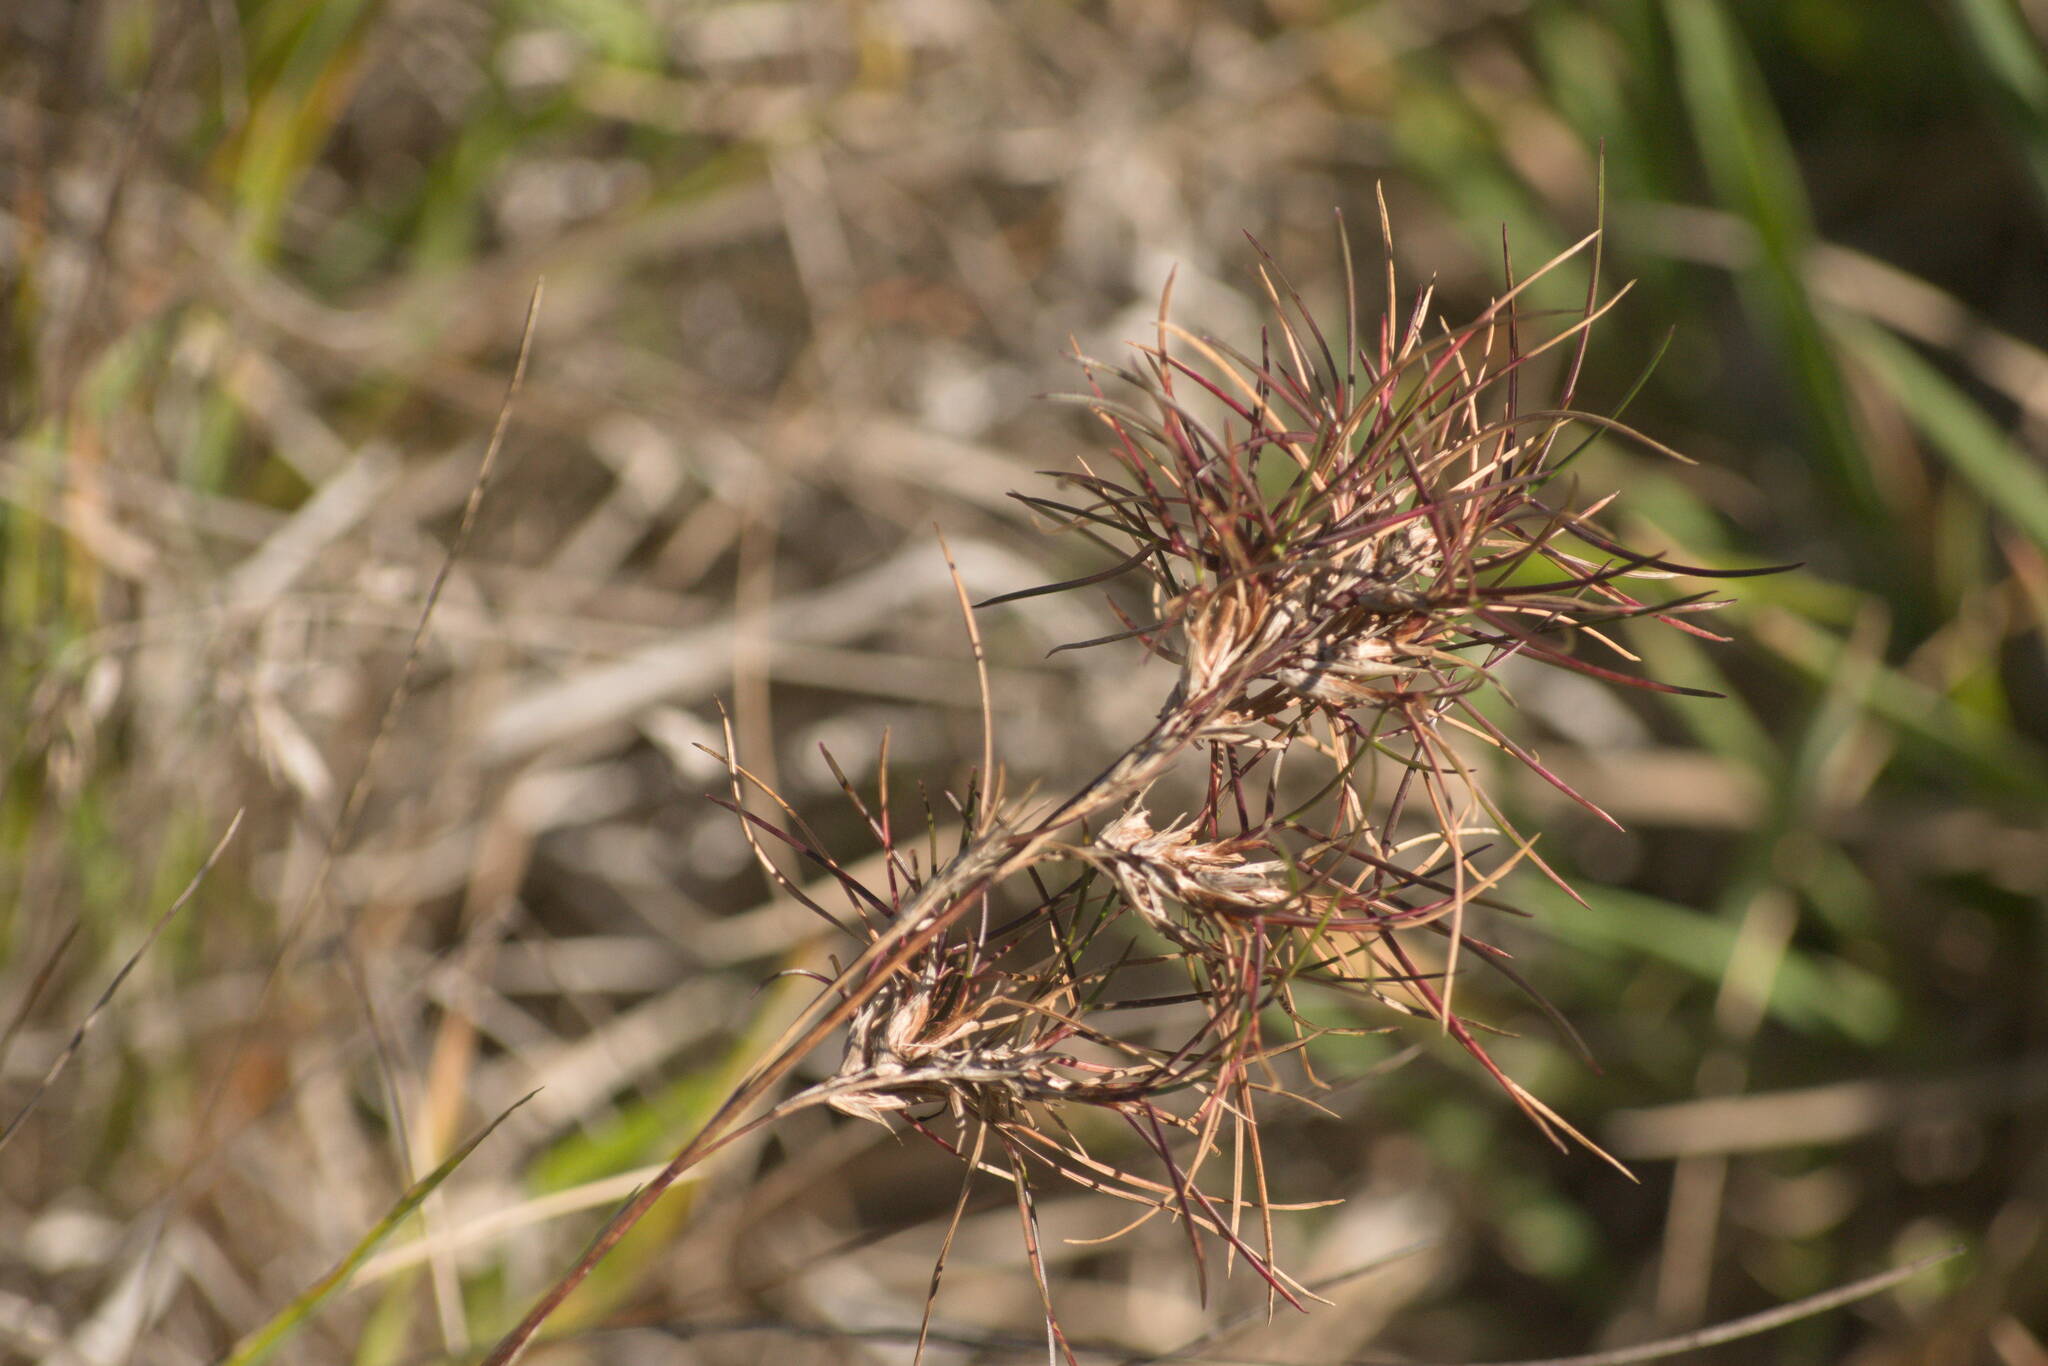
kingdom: Plantae
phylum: Tracheophyta
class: Liliopsida
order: Poales
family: Poaceae
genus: Festuca
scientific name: Festuca rubra
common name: Red fescue
